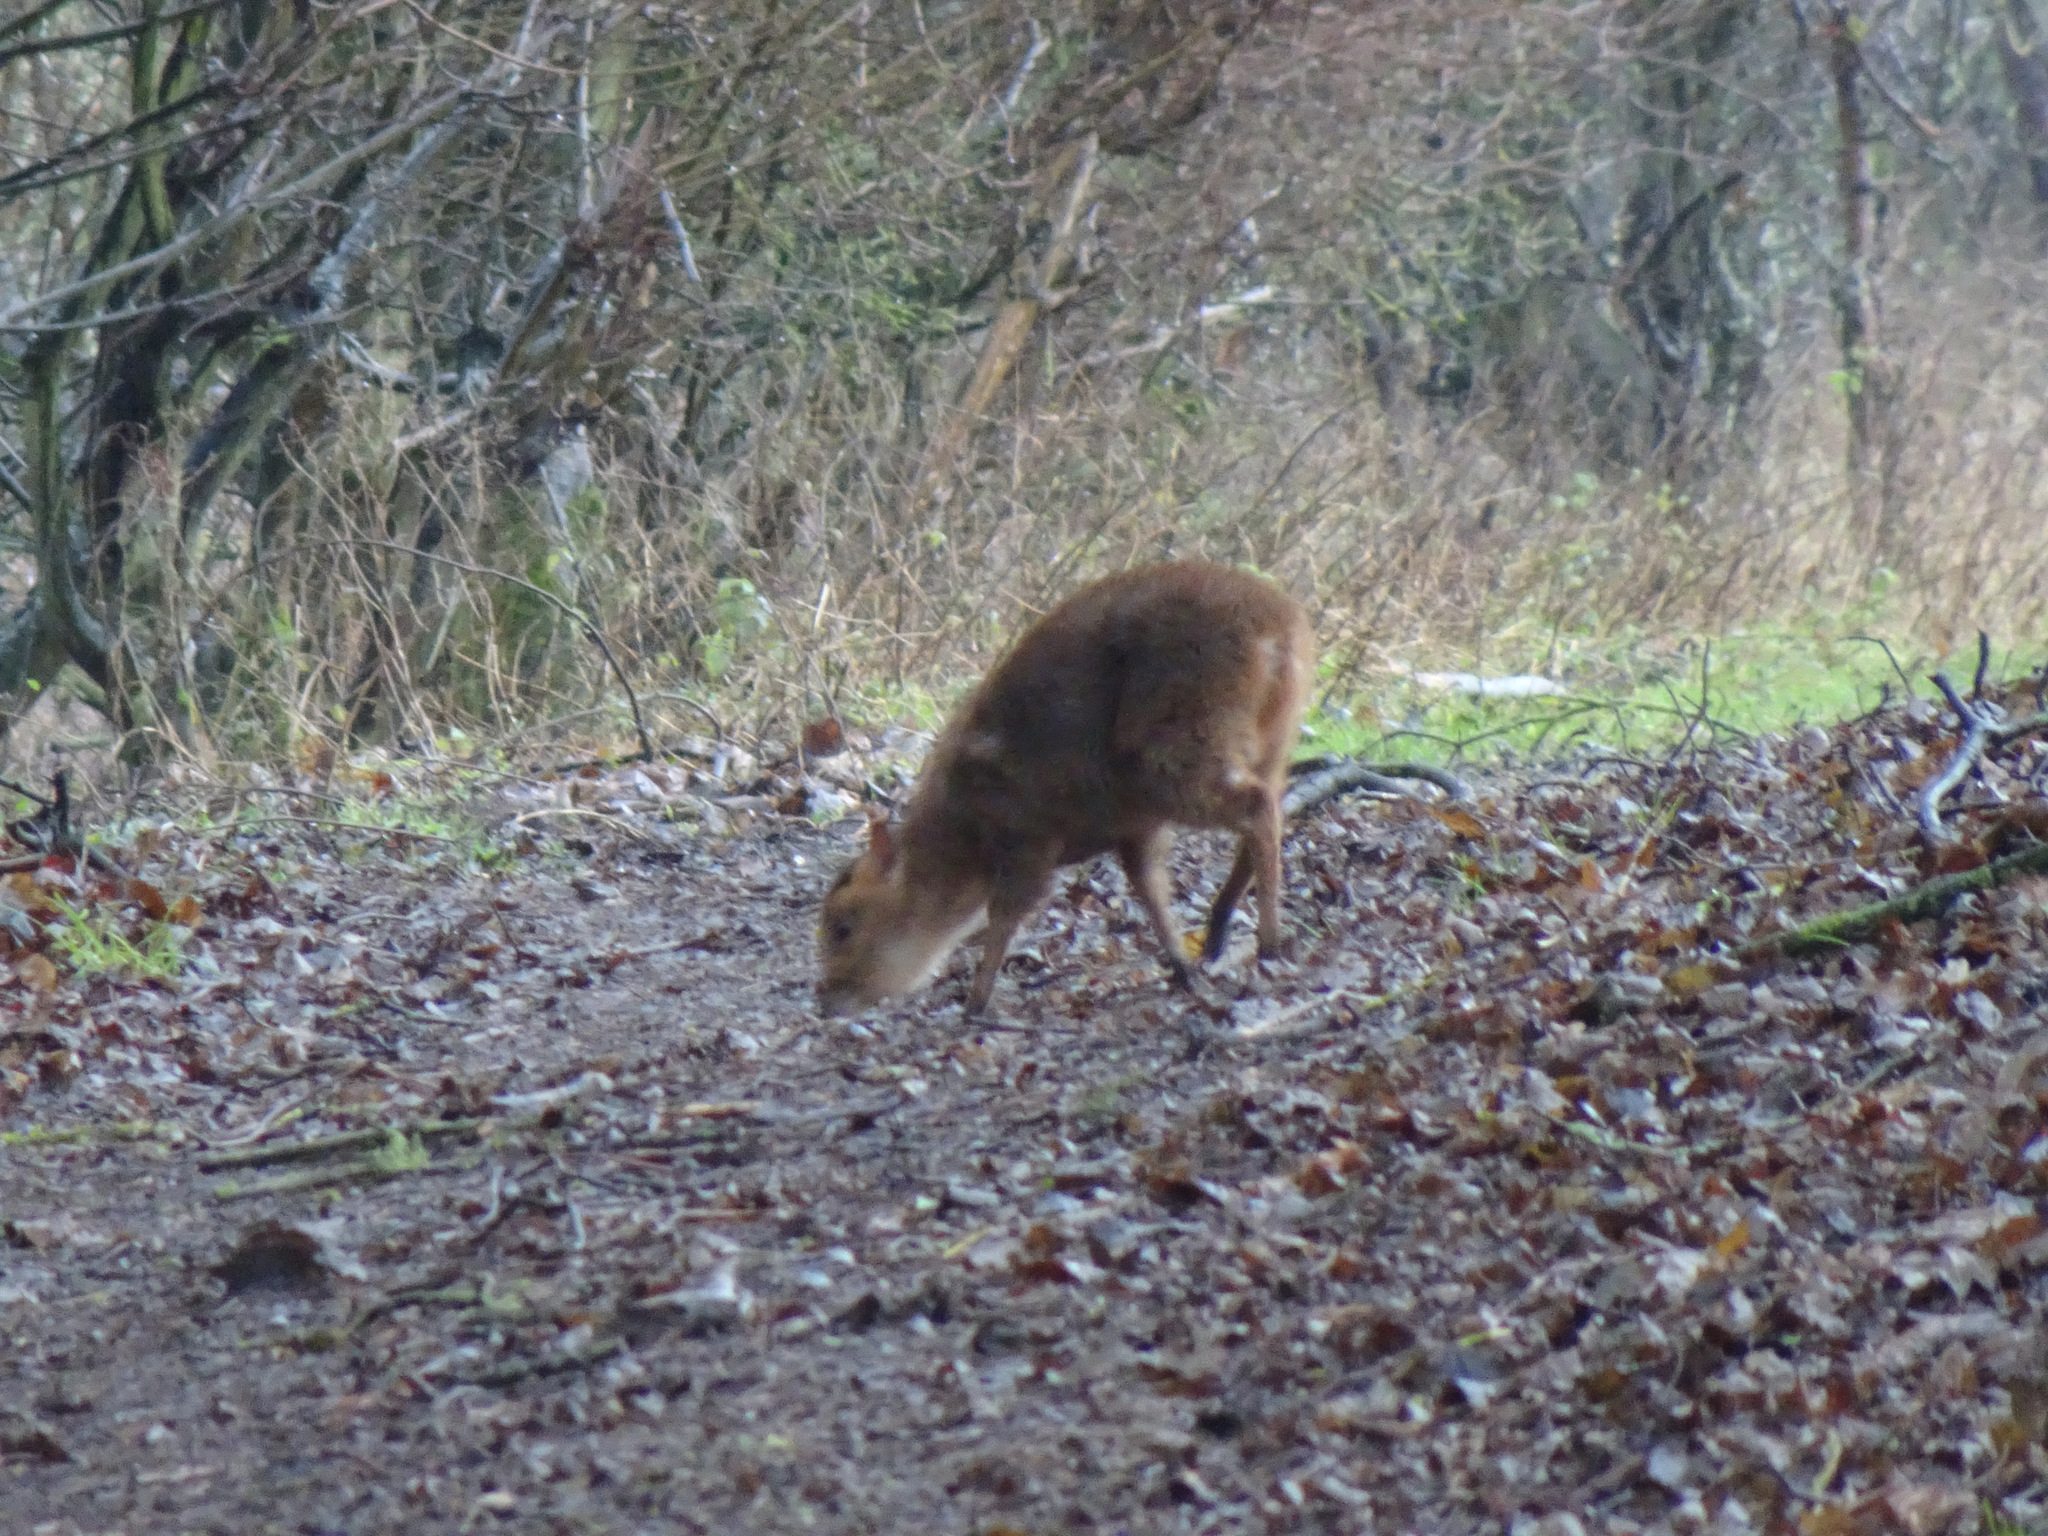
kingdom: Animalia
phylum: Chordata
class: Mammalia
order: Artiodactyla
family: Cervidae
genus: Muntiacus
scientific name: Muntiacus reevesi
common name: Reeves' muntjac
